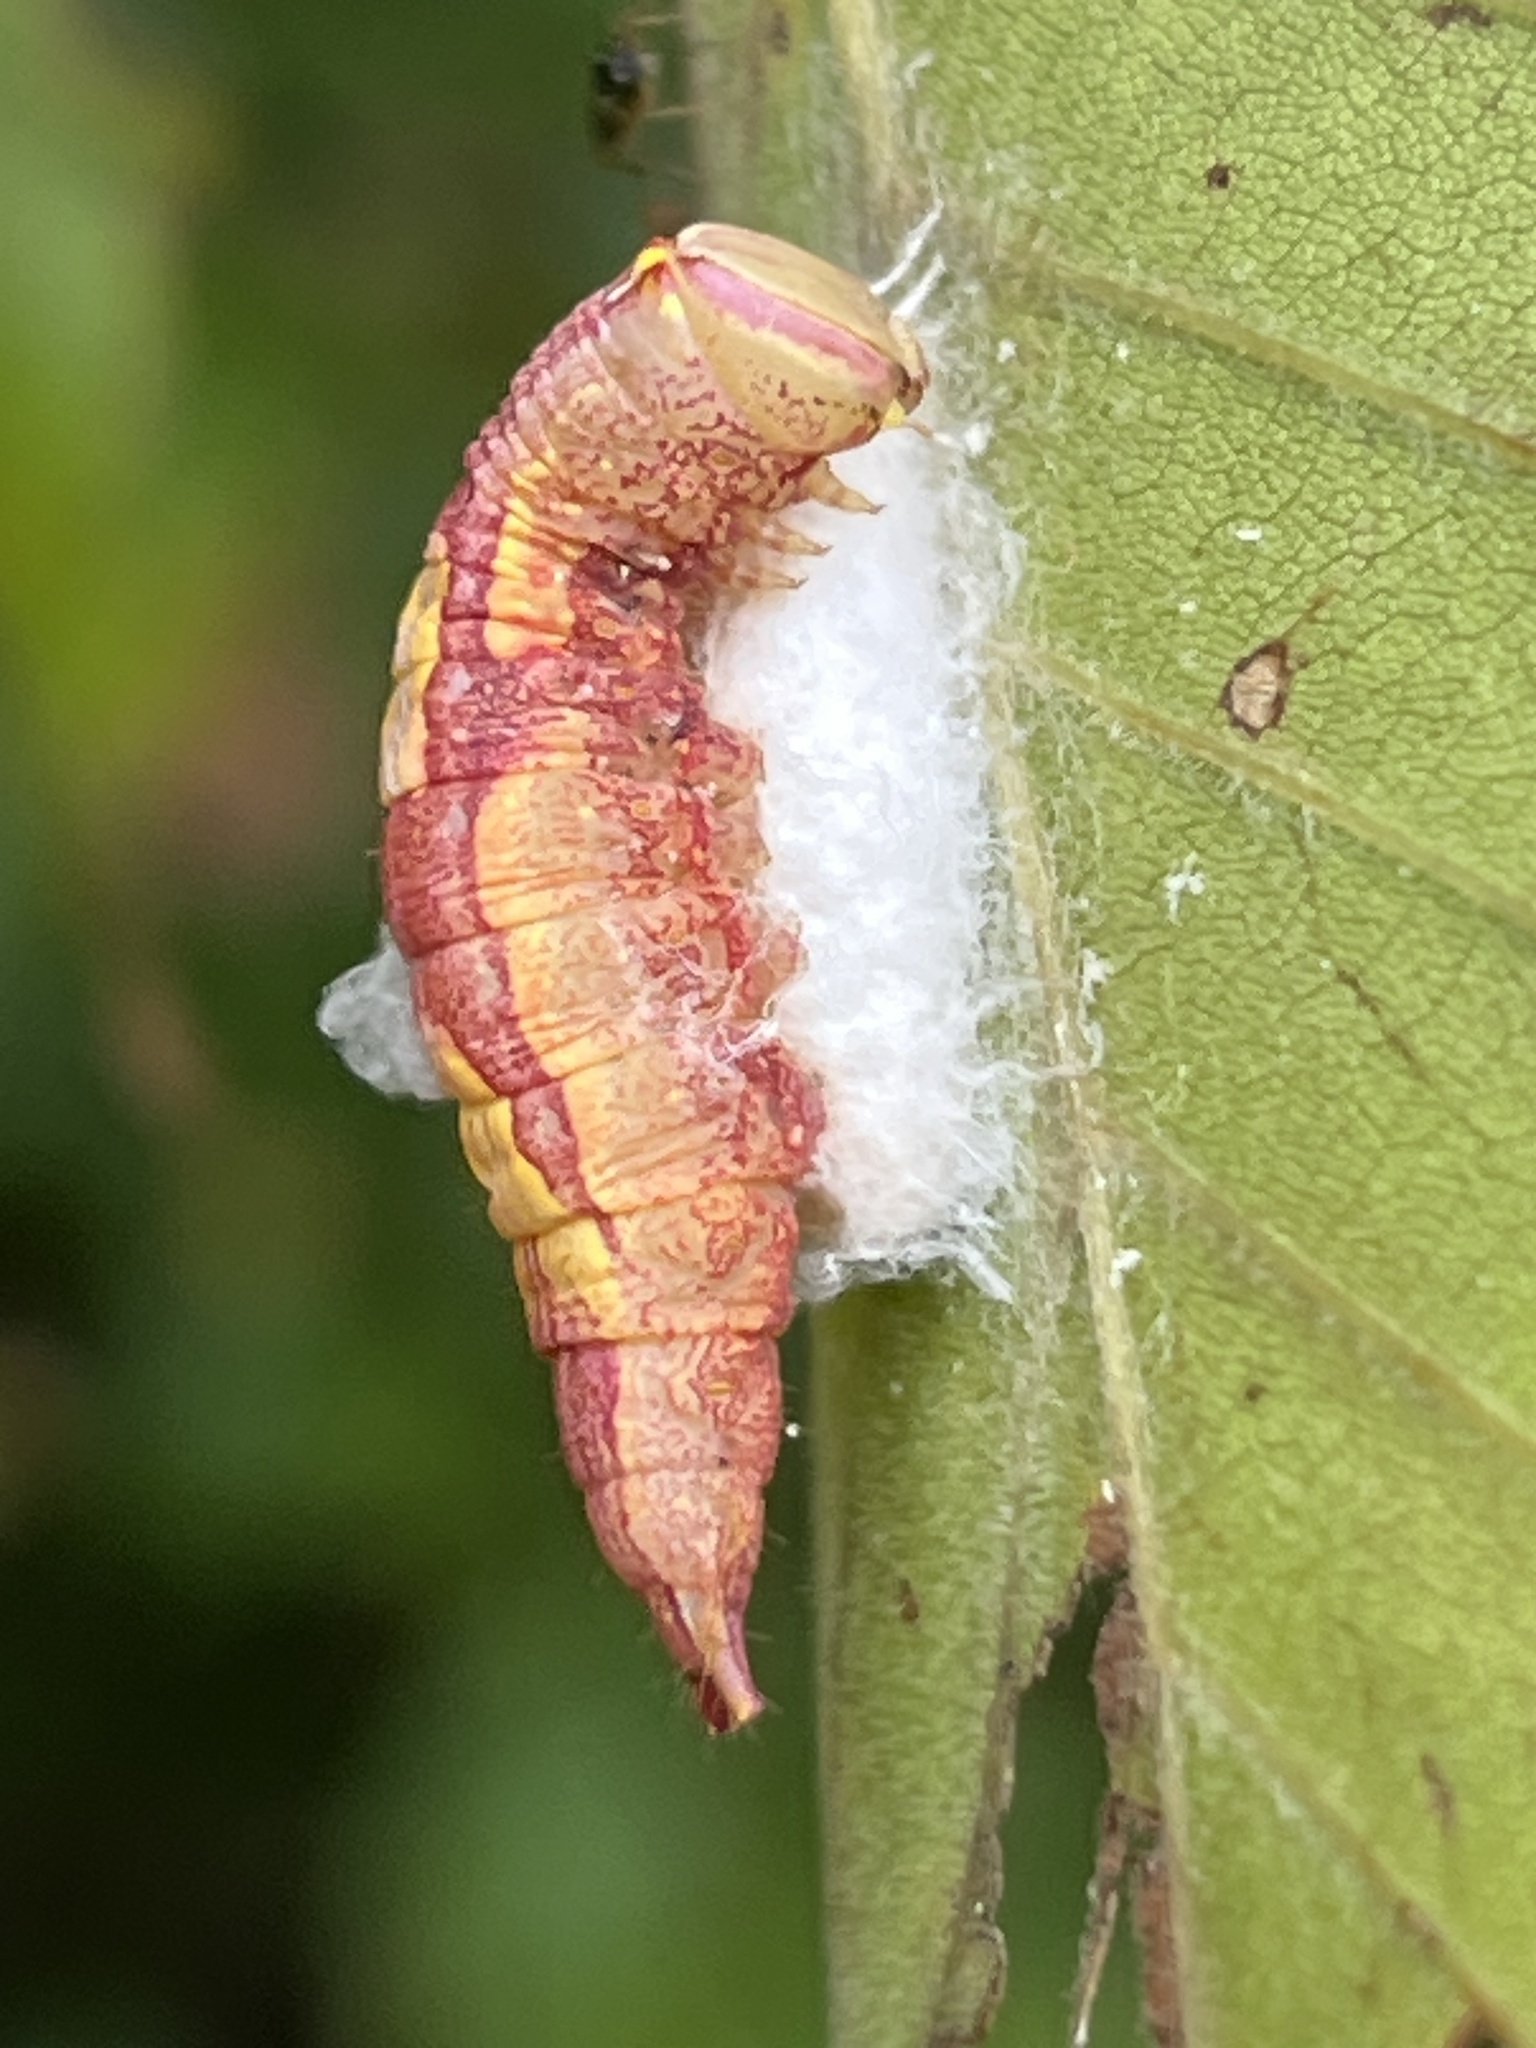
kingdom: Animalia
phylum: Arthropoda
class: Insecta
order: Lepidoptera
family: Notodontidae
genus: Disphragis
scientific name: Disphragis Cecrita guttivitta
